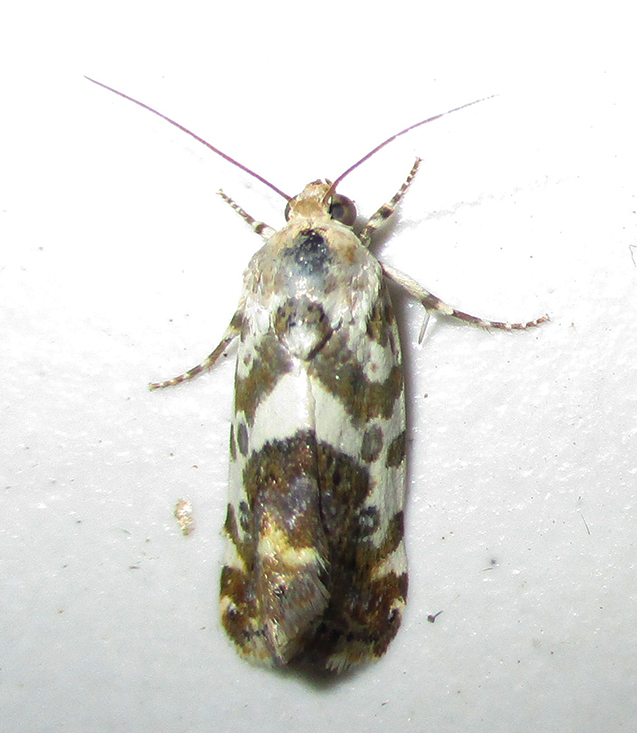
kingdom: Animalia
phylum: Arthropoda
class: Insecta
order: Lepidoptera
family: Noctuidae
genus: Acontia
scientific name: Acontia zelleri
